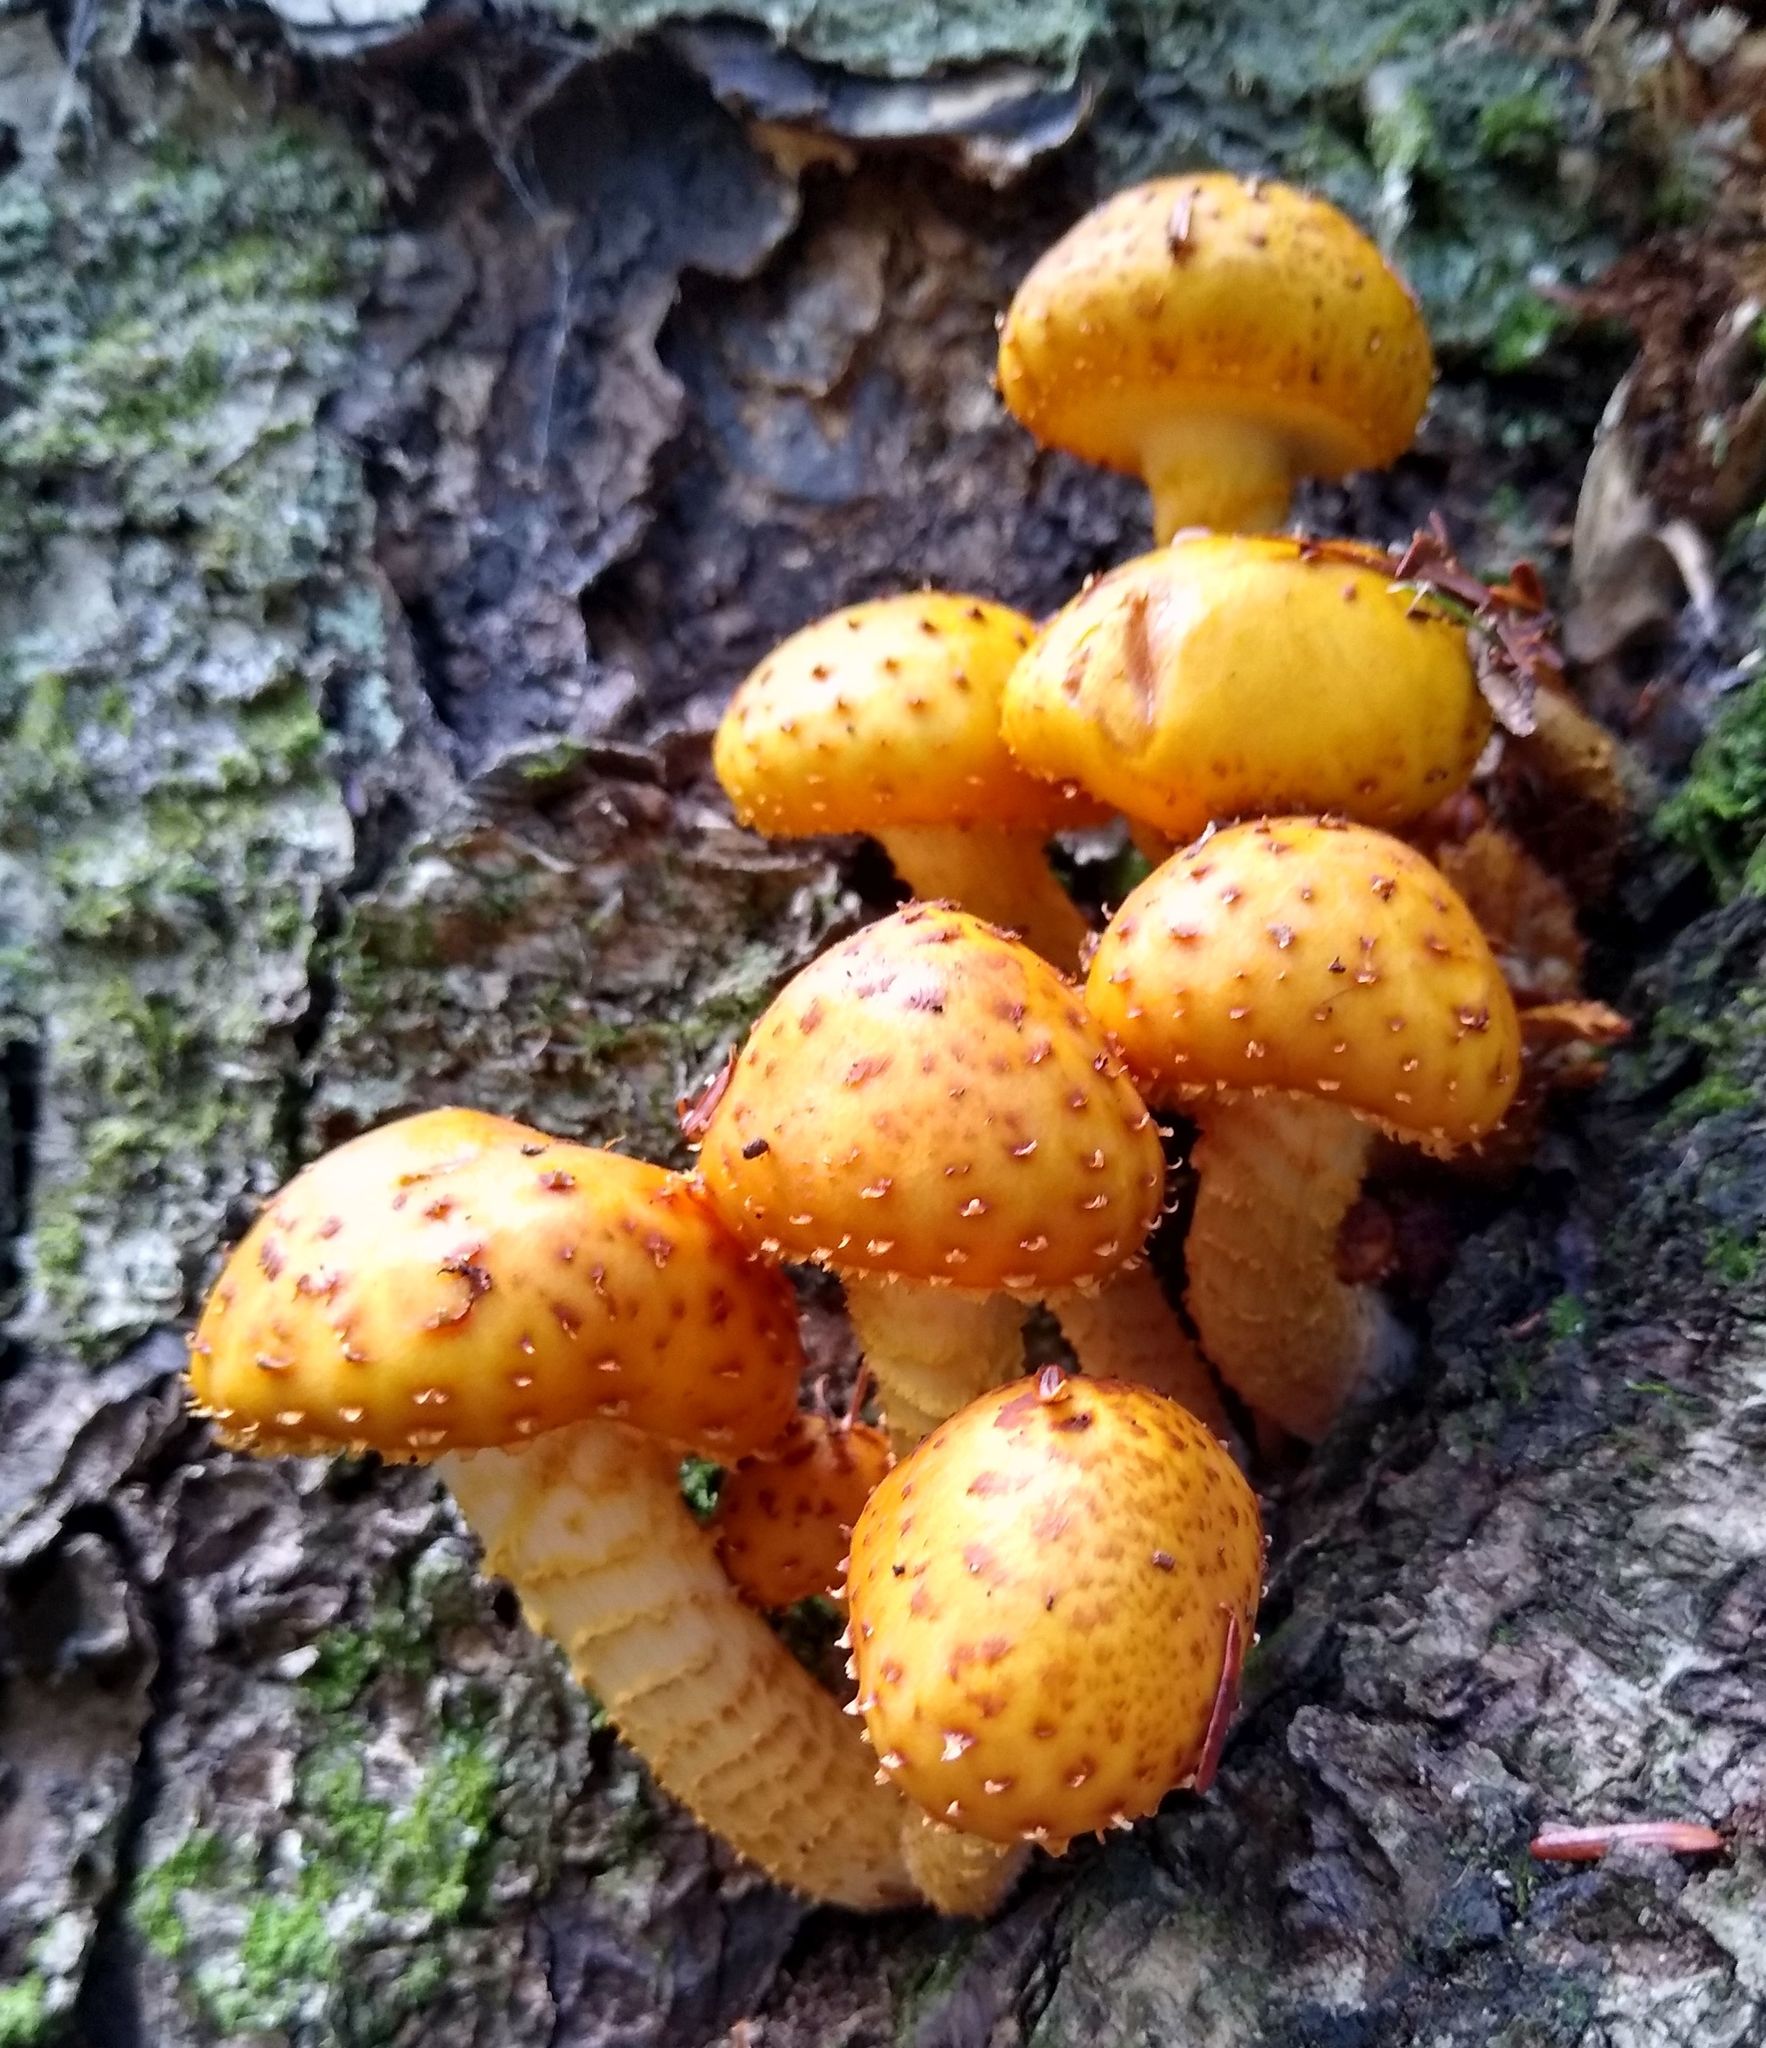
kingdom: Fungi
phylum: Basidiomycota
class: Agaricomycetes
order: Agaricales
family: Strophariaceae
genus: Pholiota
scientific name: Pholiota aurivella
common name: Golden scalycap
